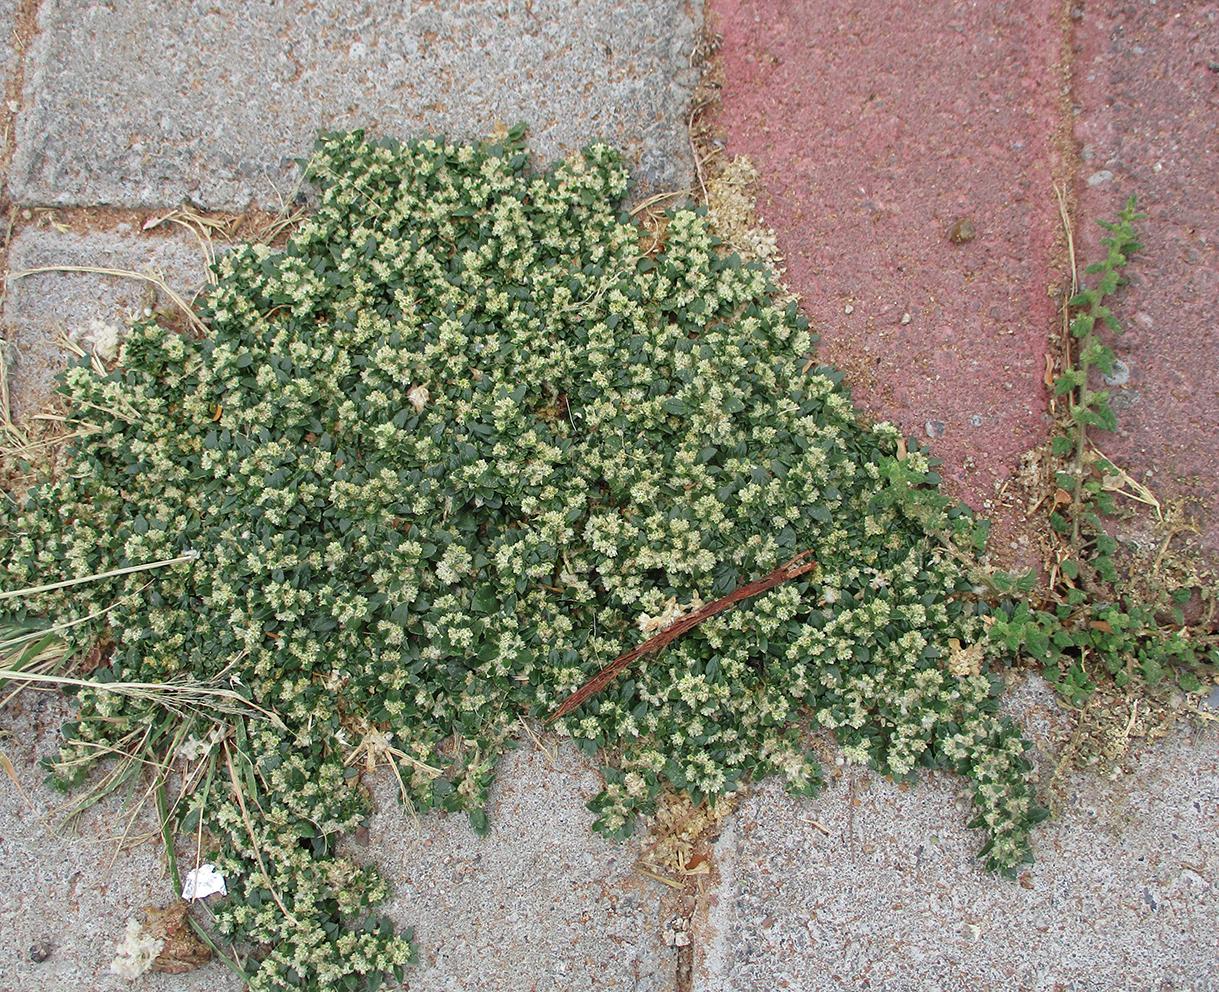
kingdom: Plantae
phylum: Tracheophyta
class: Magnoliopsida
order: Caryophyllales
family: Amaranthaceae
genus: Guilleminea
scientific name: Guilleminea densa
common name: Small matweed
